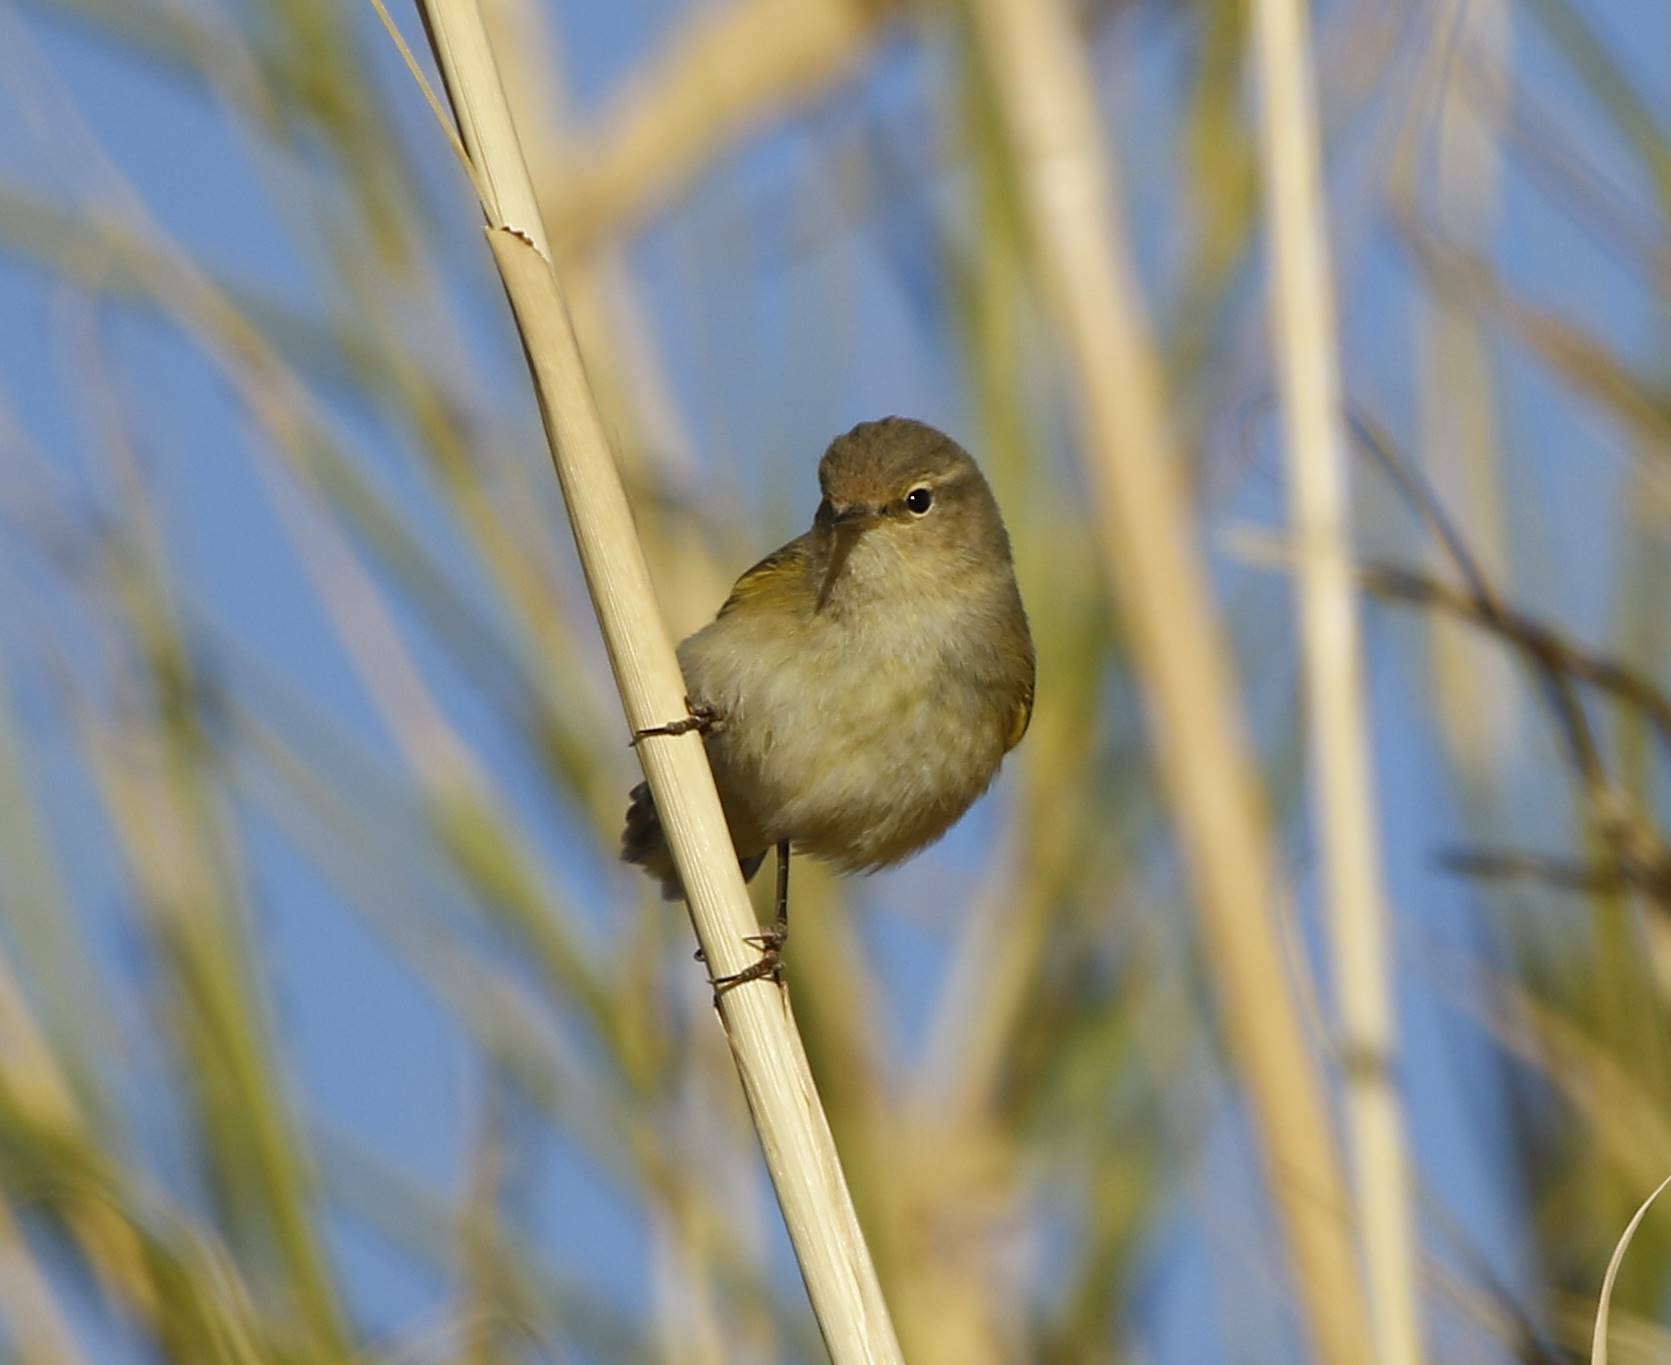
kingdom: Animalia
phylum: Chordata
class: Aves
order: Passeriformes
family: Phylloscopidae
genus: Phylloscopus
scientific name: Phylloscopus collybita
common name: Common chiffchaff
